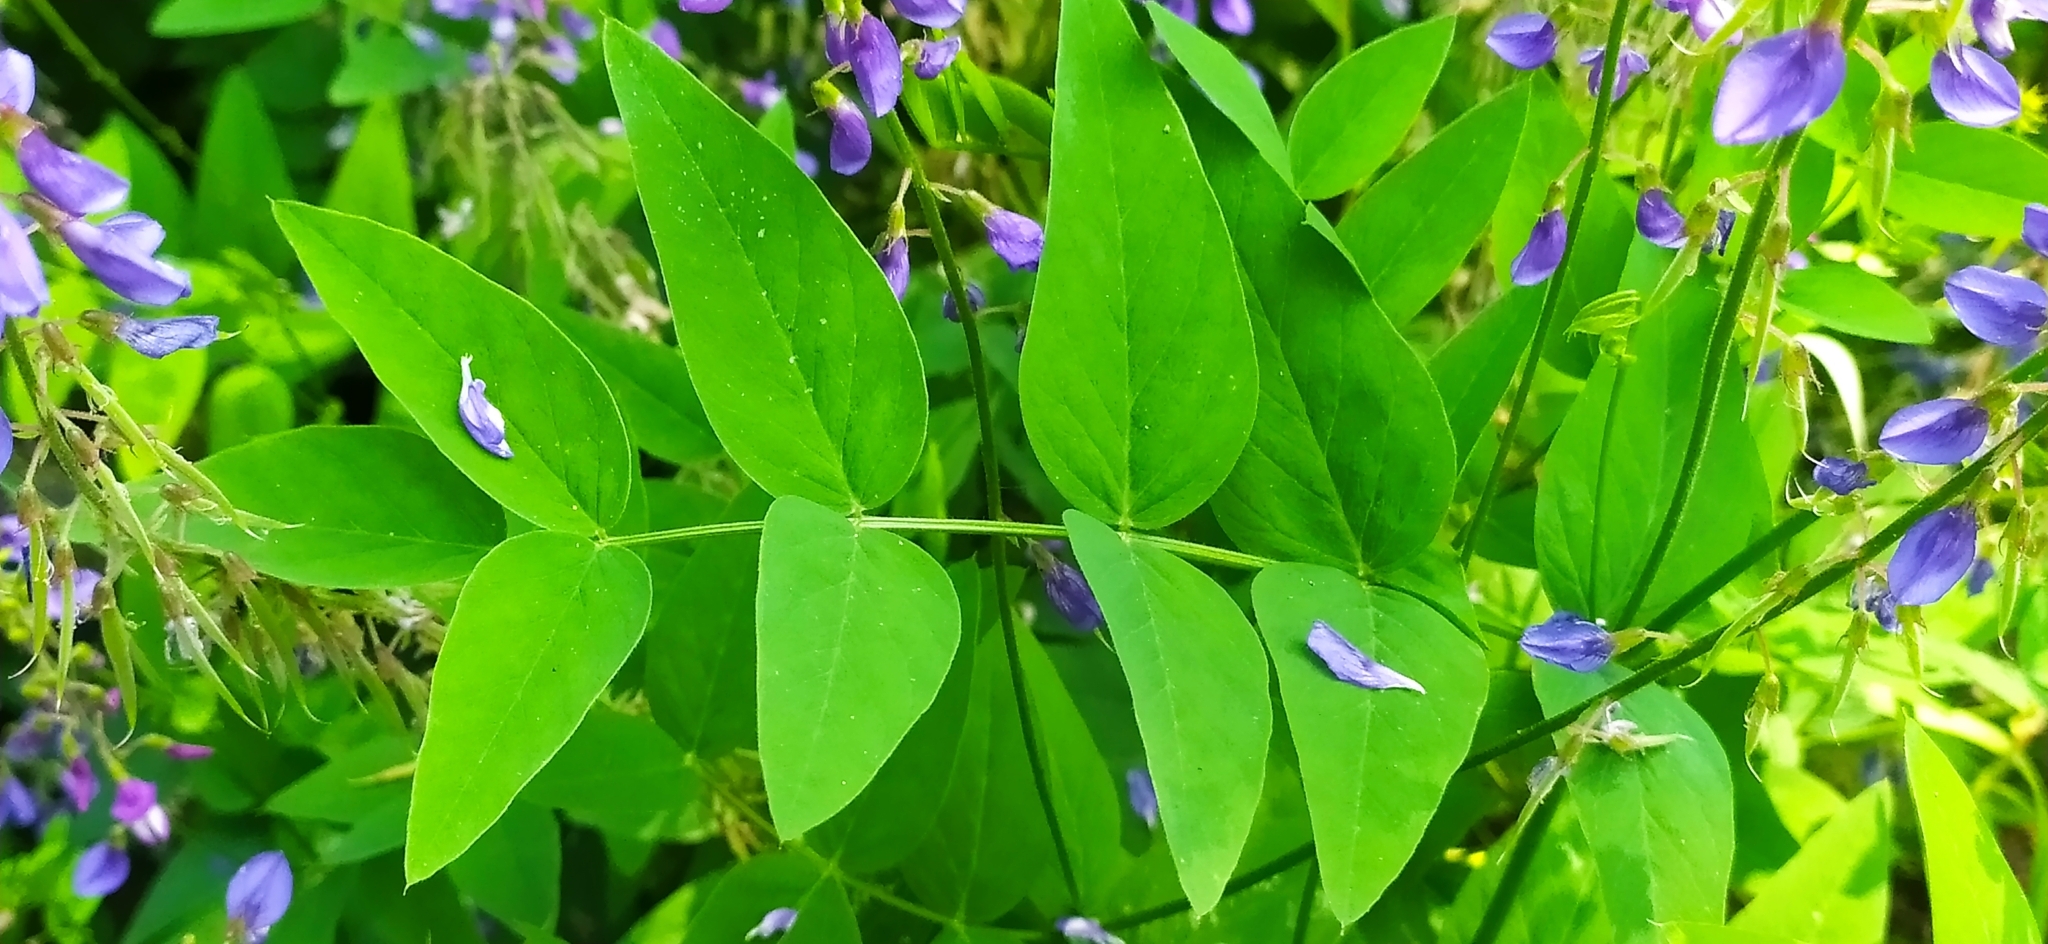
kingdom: Plantae
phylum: Tracheophyta
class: Magnoliopsida
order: Fabales
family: Fabaceae
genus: Galega
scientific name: Galega orientalis
